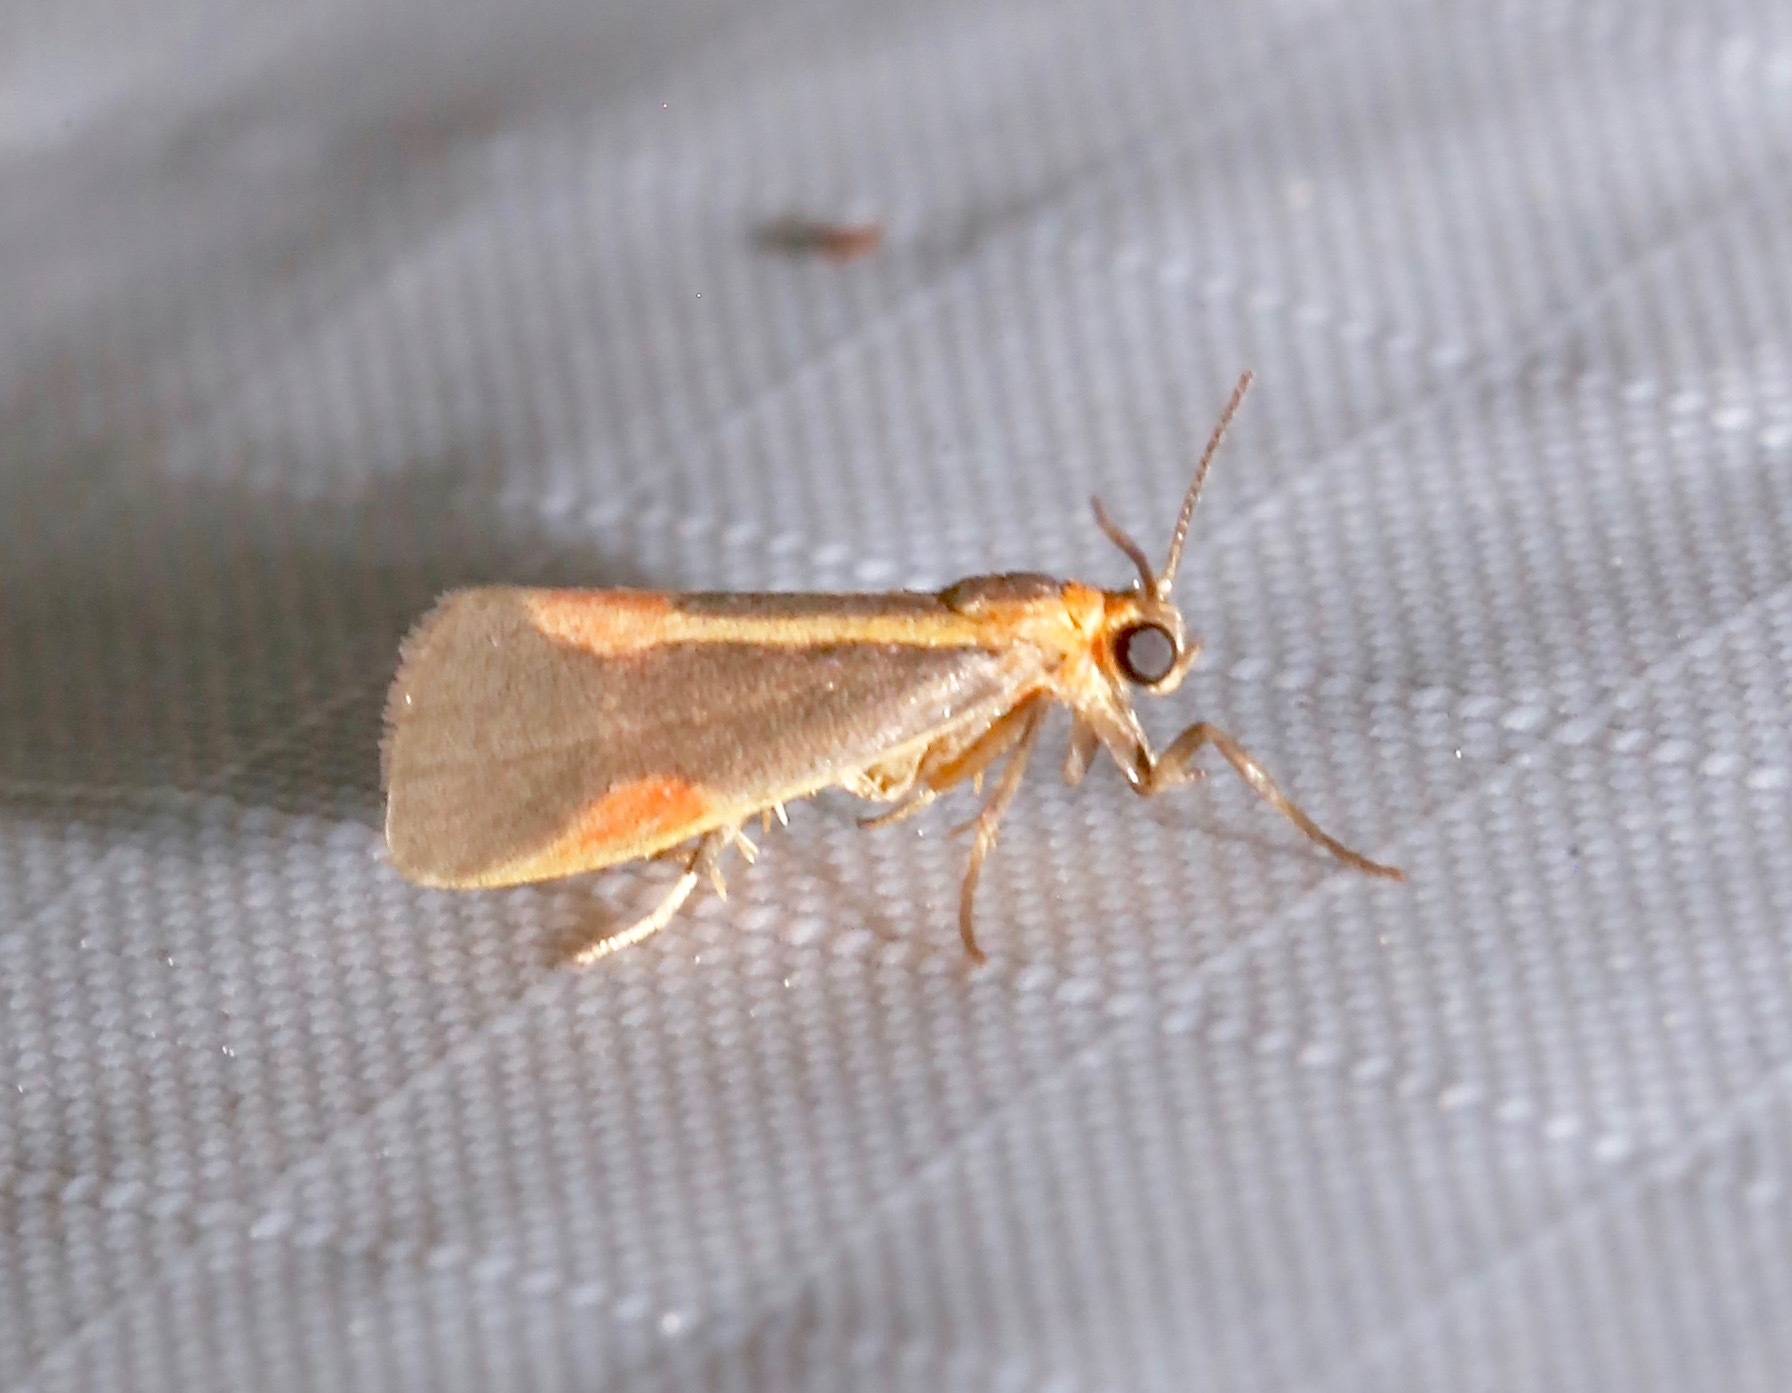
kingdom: Animalia
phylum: Arthropoda
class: Insecta
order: Lepidoptera
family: Erebidae
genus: Cisthene
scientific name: Cisthene packardii
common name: Packard's lichen moth
